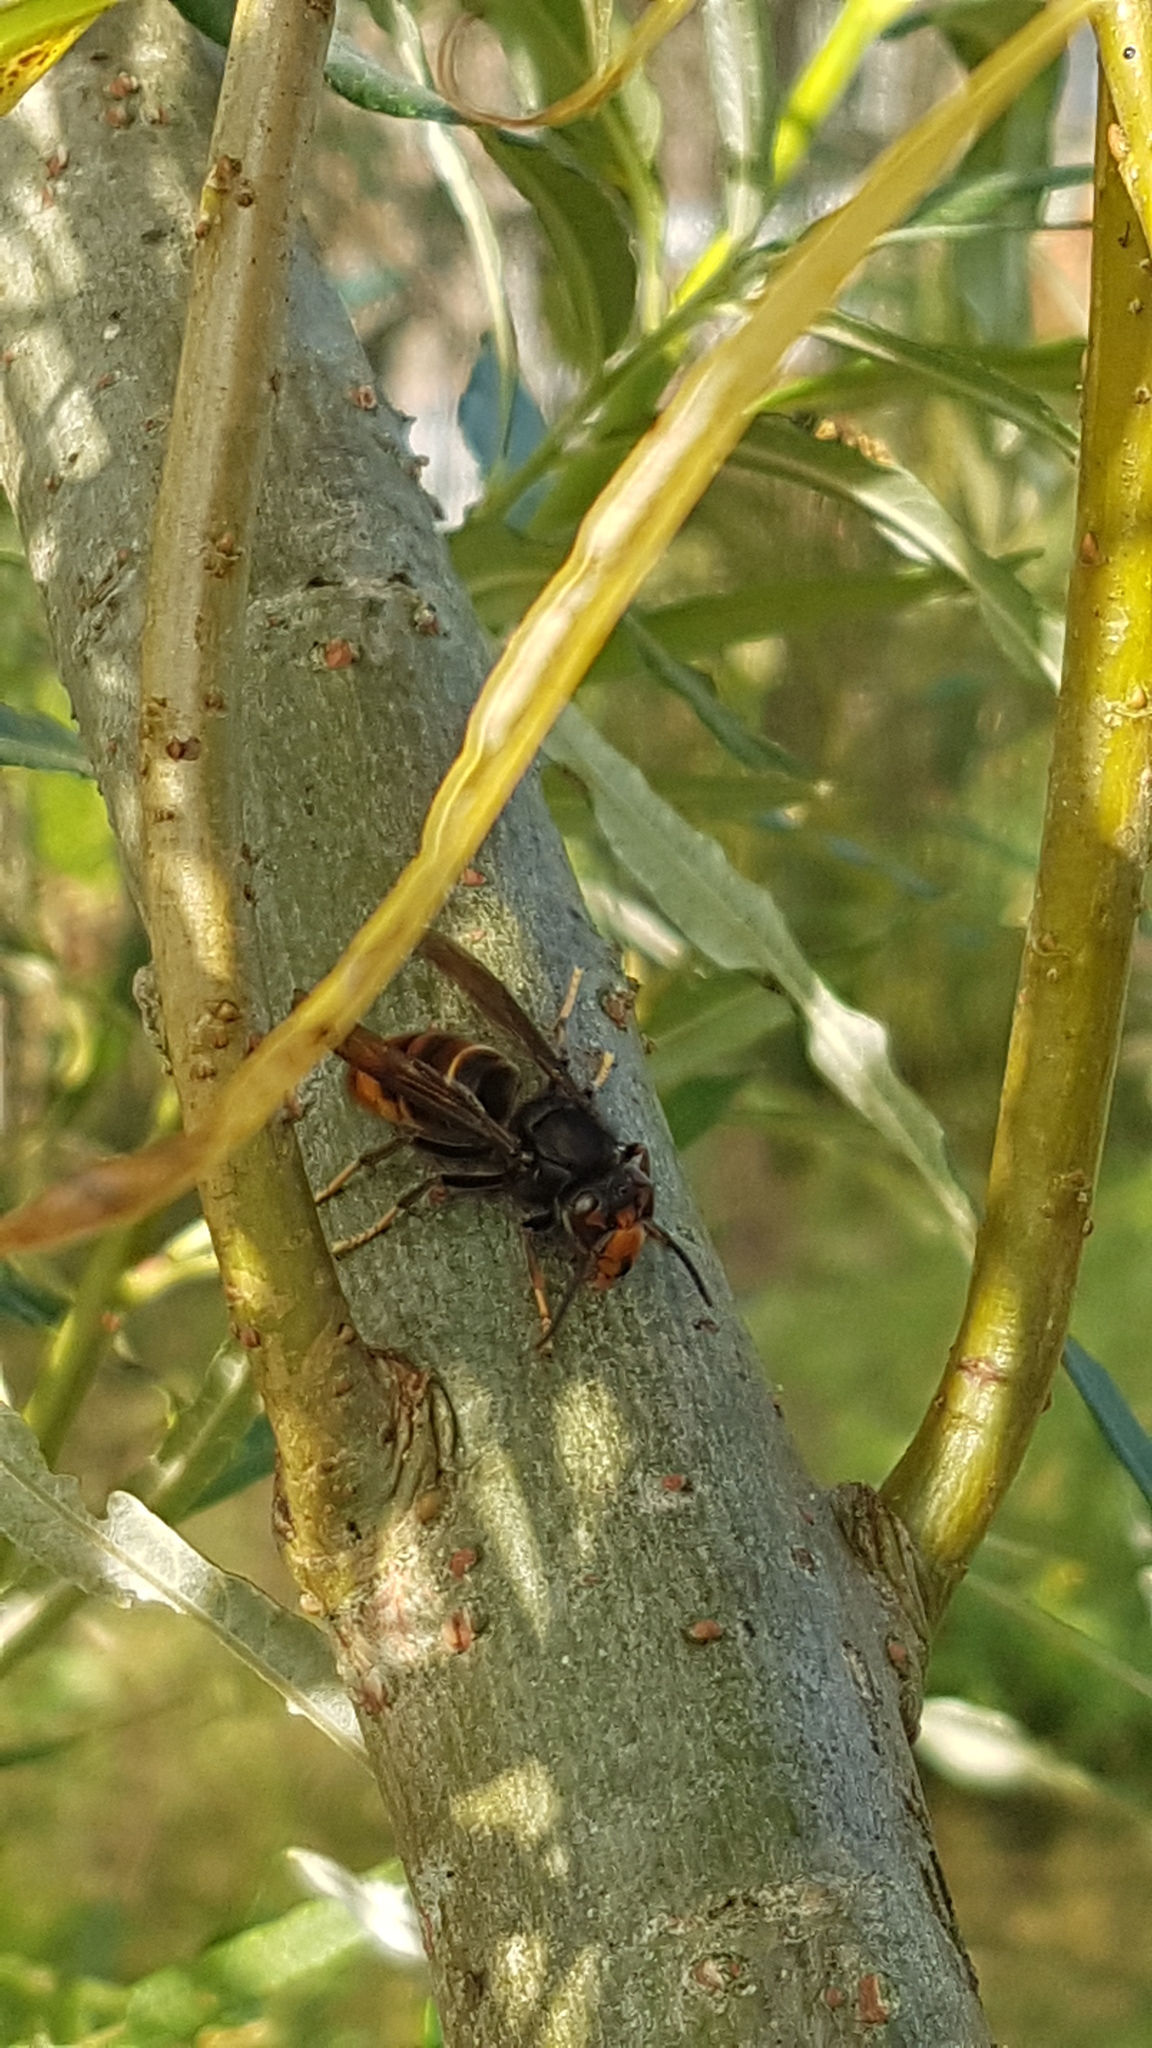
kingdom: Animalia
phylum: Arthropoda
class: Insecta
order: Hymenoptera
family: Vespidae
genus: Vespa
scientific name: Vespa velutina
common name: Asian hornet
